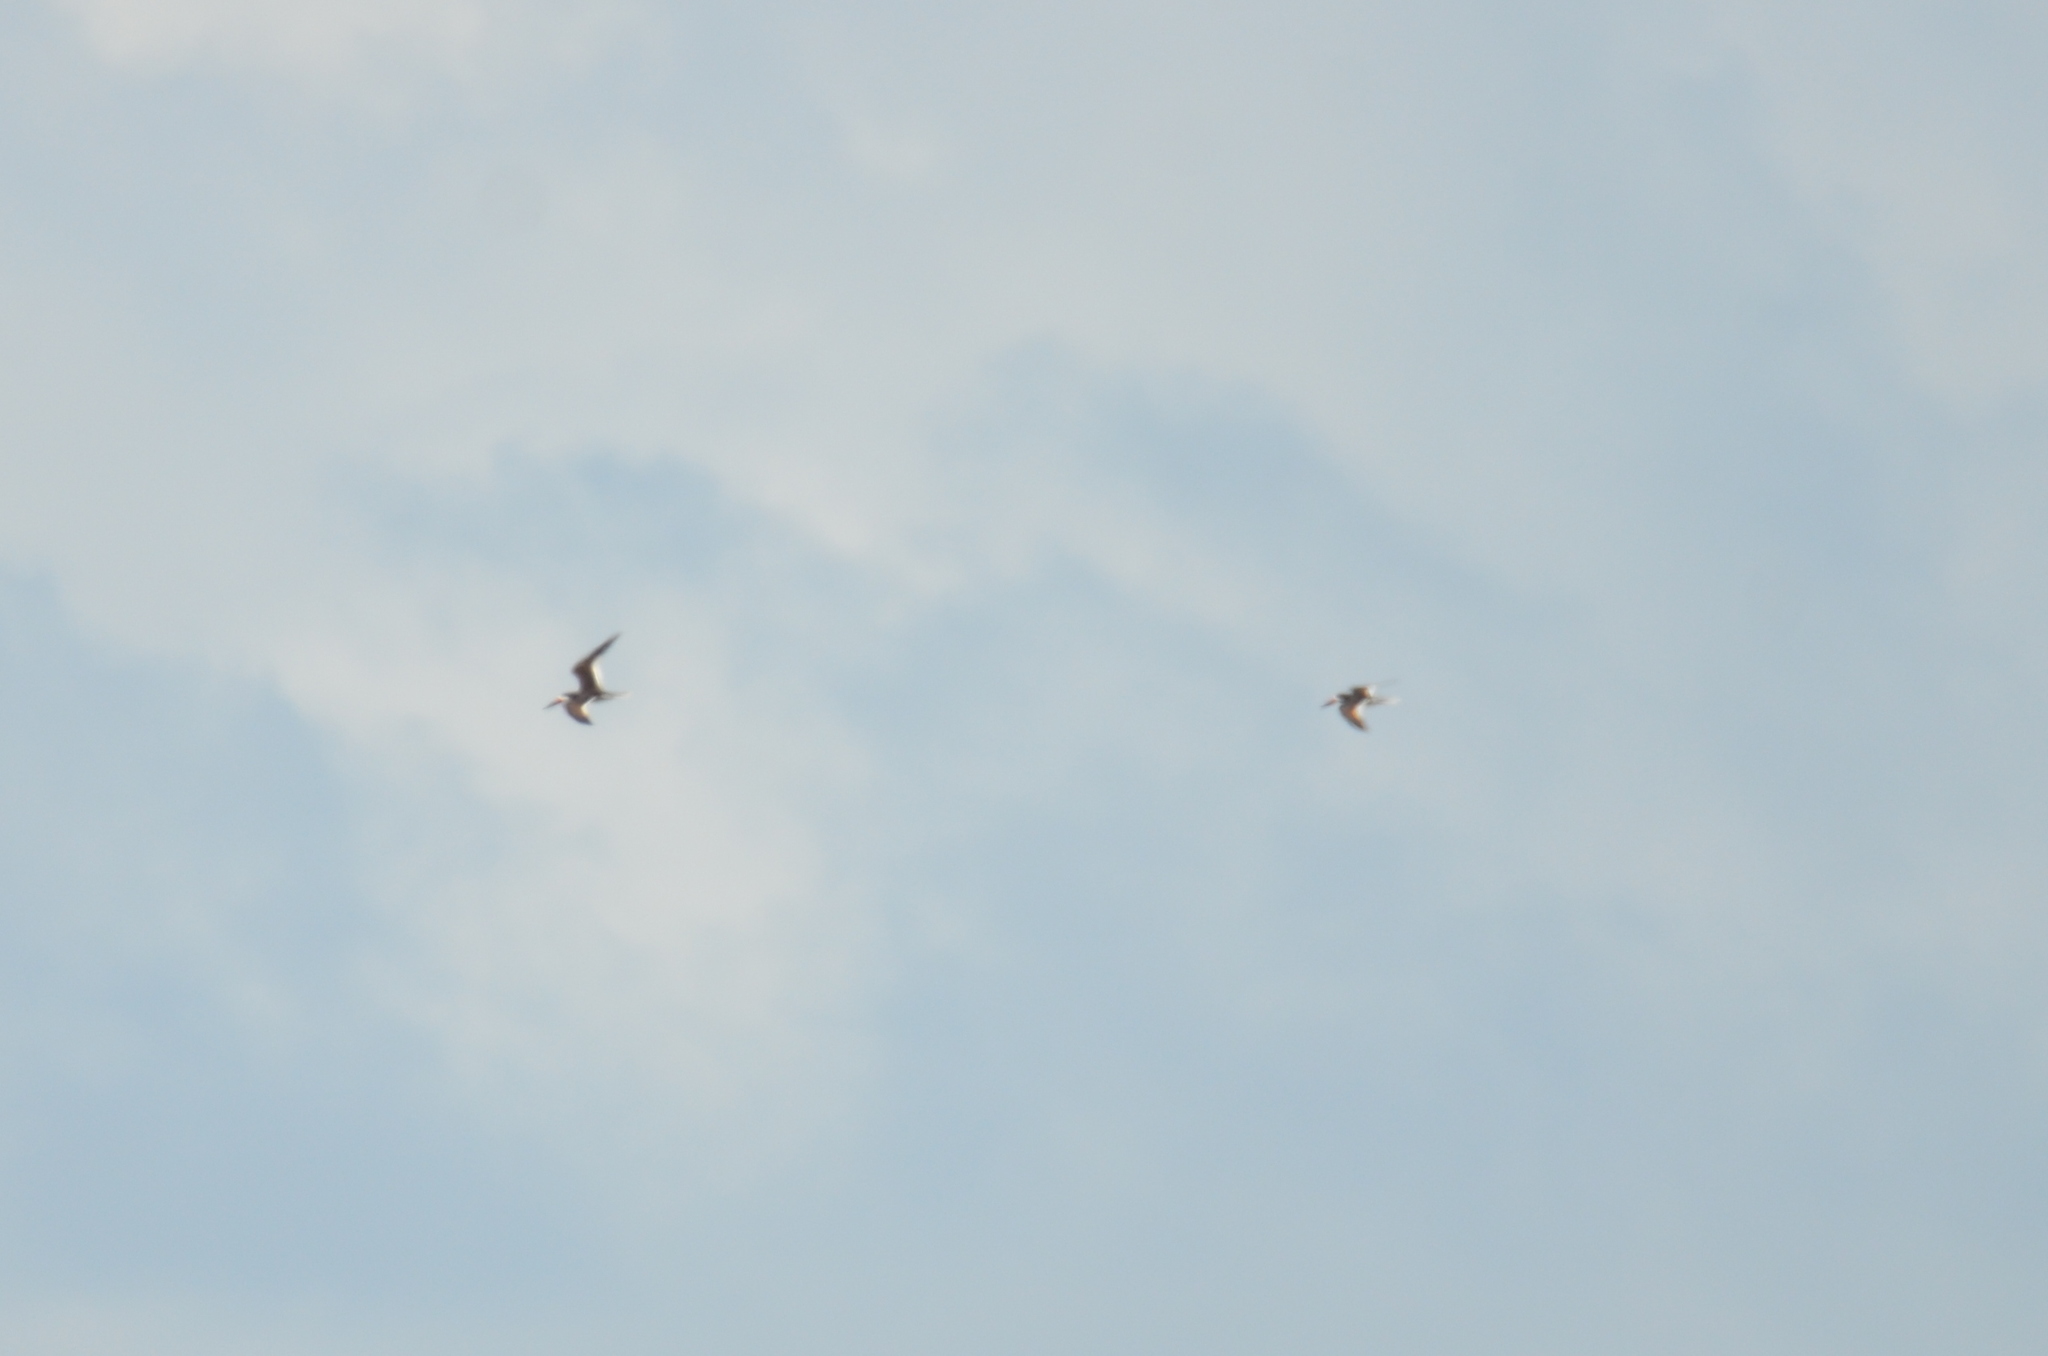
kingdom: Animalia
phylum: Chordata
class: Aves
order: Charadriiformes
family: Laridae
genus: Rynchops
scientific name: Rynchops niger
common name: Black skimmer
